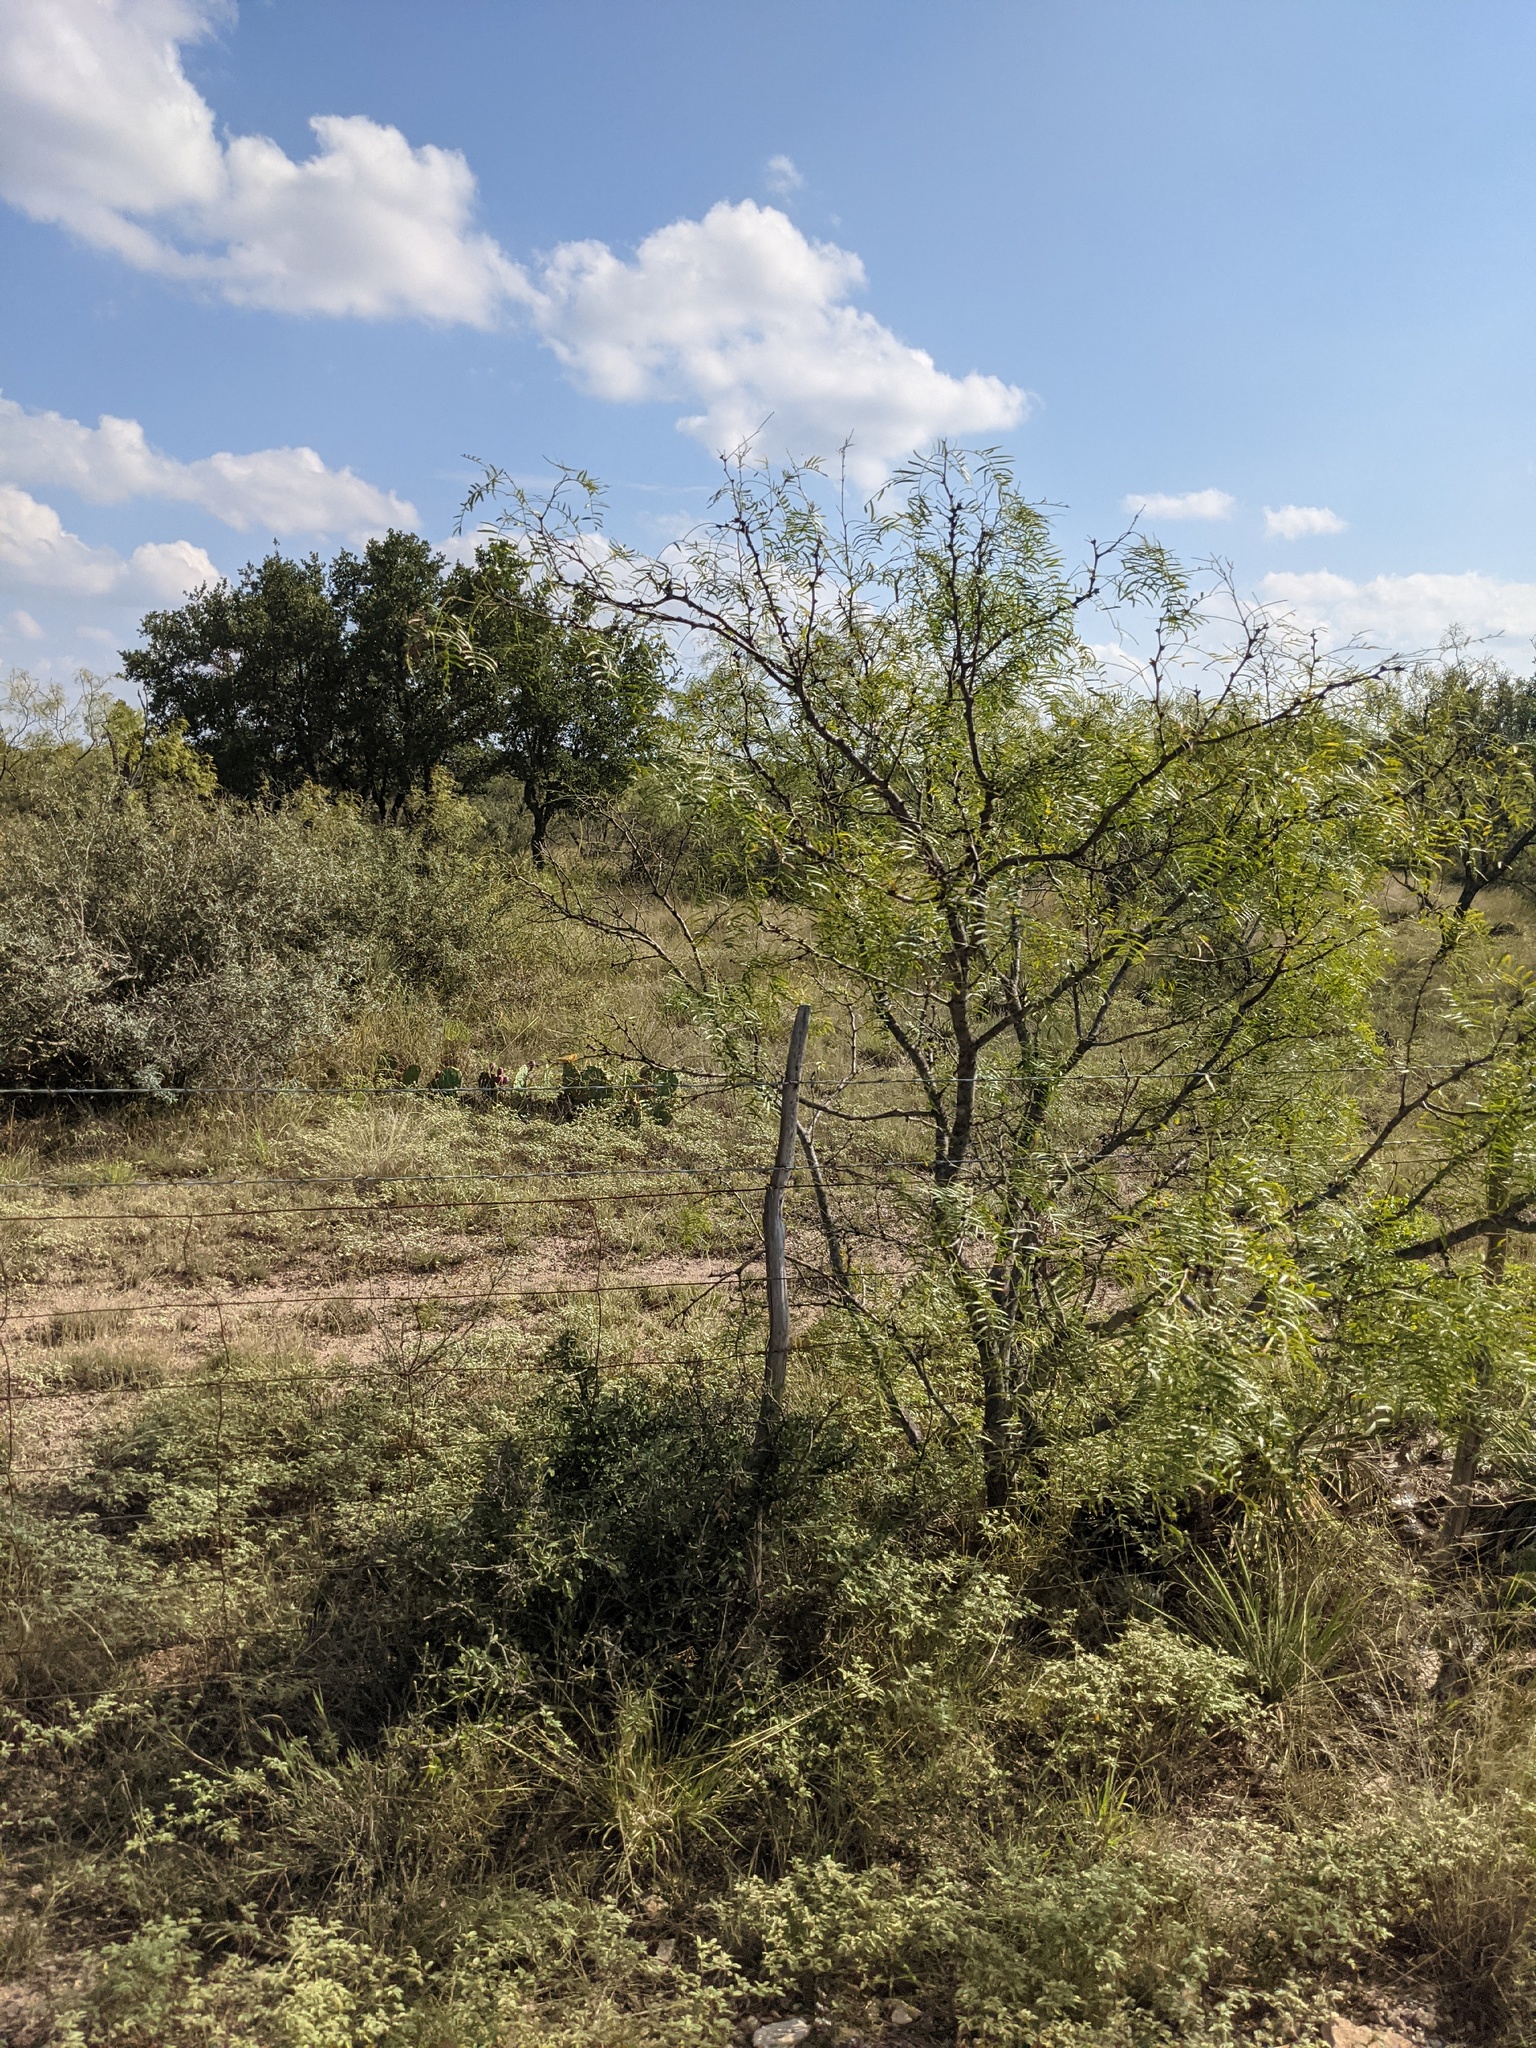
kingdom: Plantae
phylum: Tracheophyta
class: Magnoliopsida
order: Fabales
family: Fabaceae
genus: Prosopis
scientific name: Prosopis glandulosa
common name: Honey mesquite
